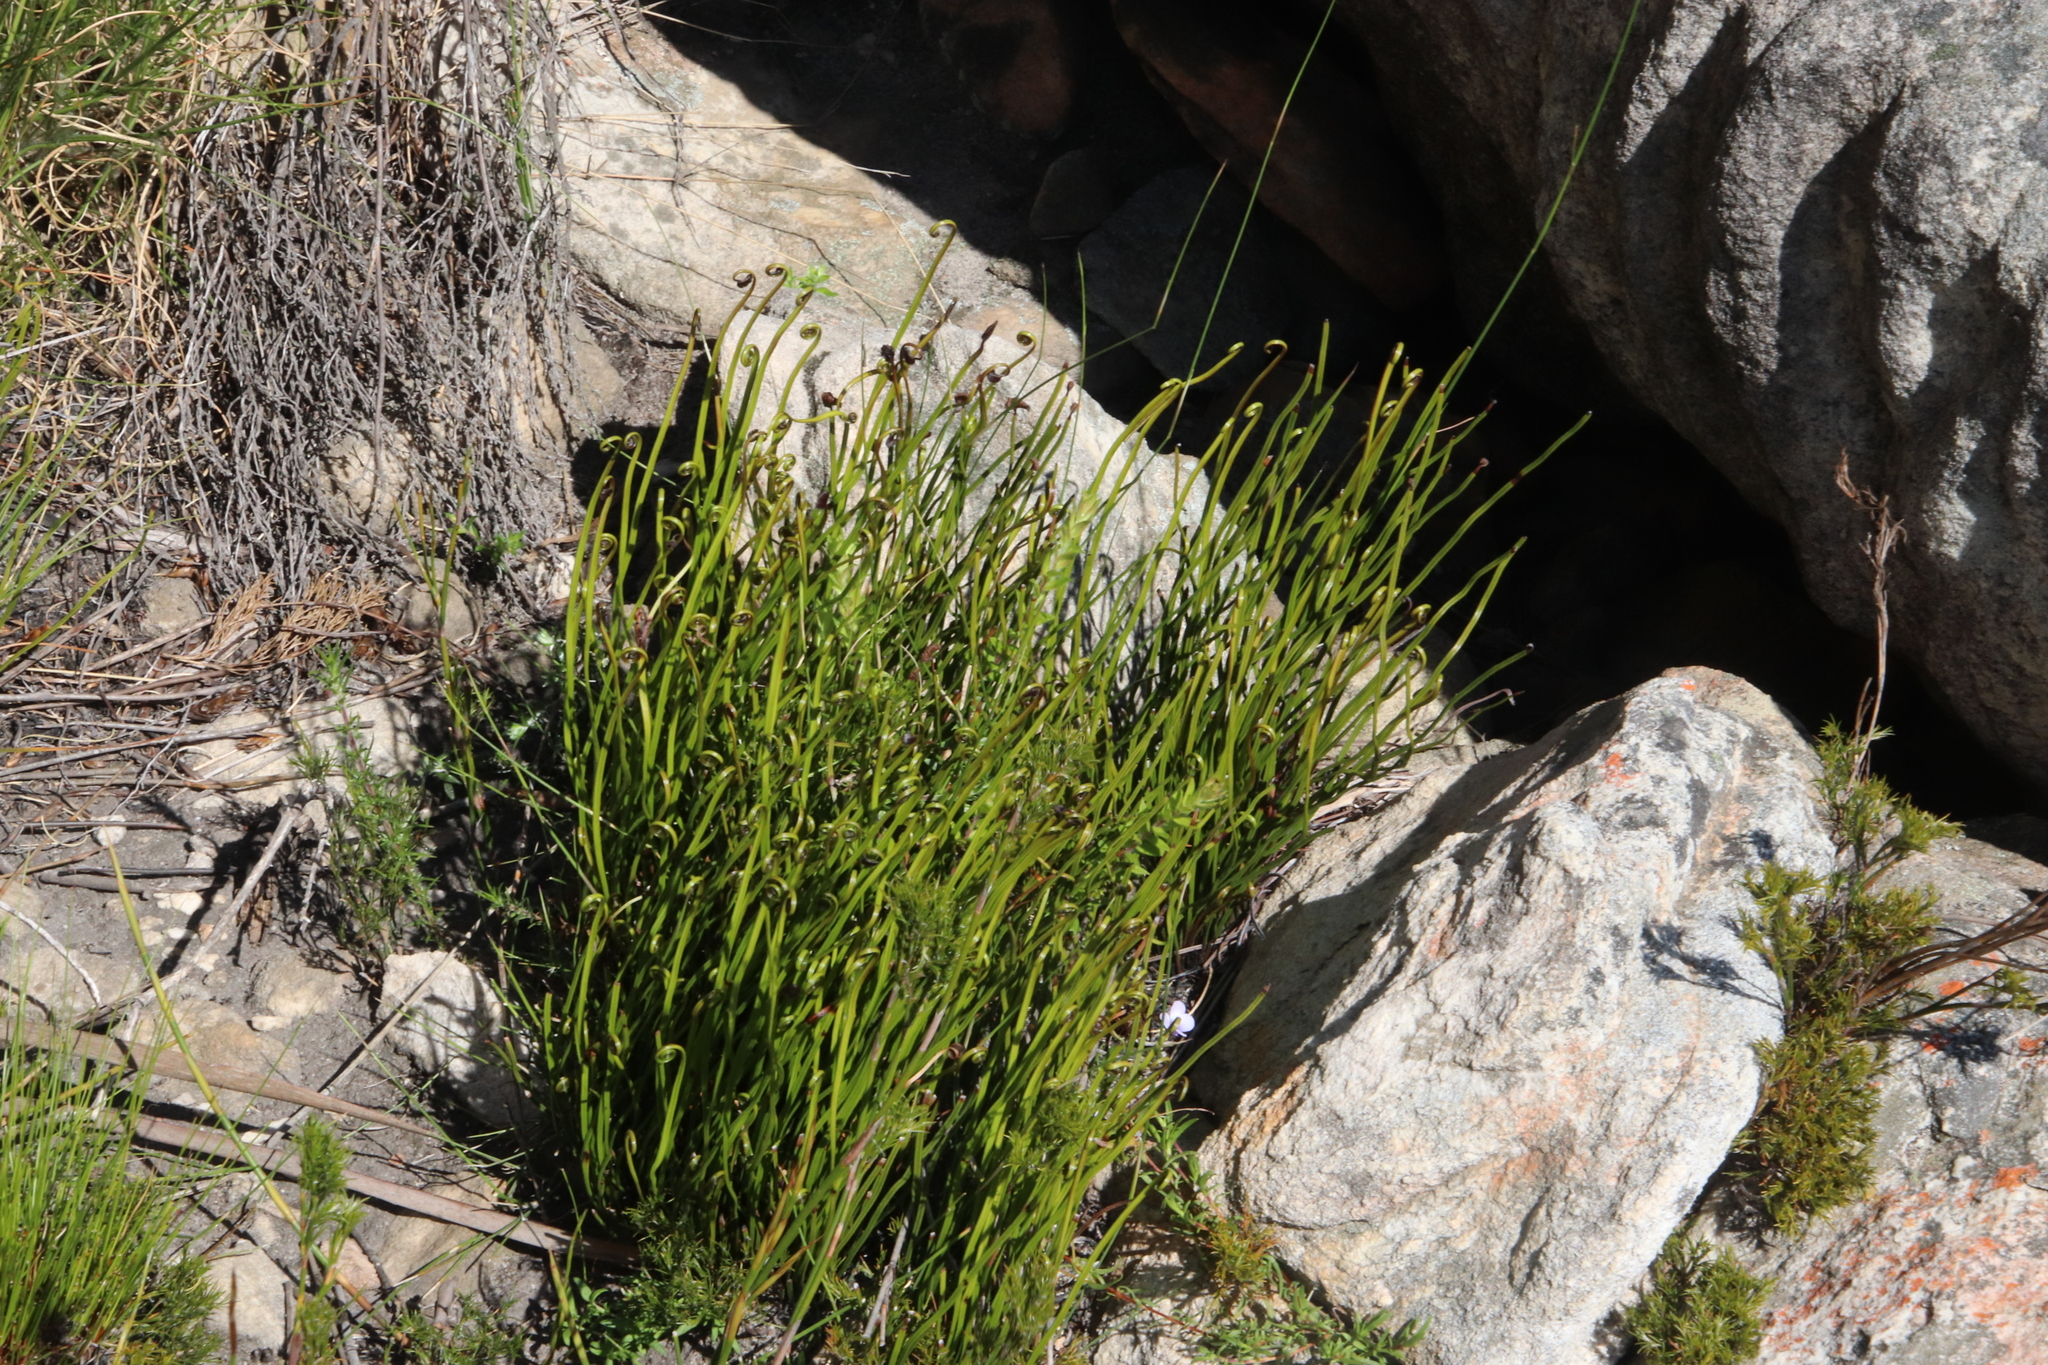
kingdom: Plantae
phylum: Tracheophyta
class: Polypodiopsida
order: Schizaeales
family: Schizaeaceae
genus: Schizaea
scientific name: Schizaea pectinata
